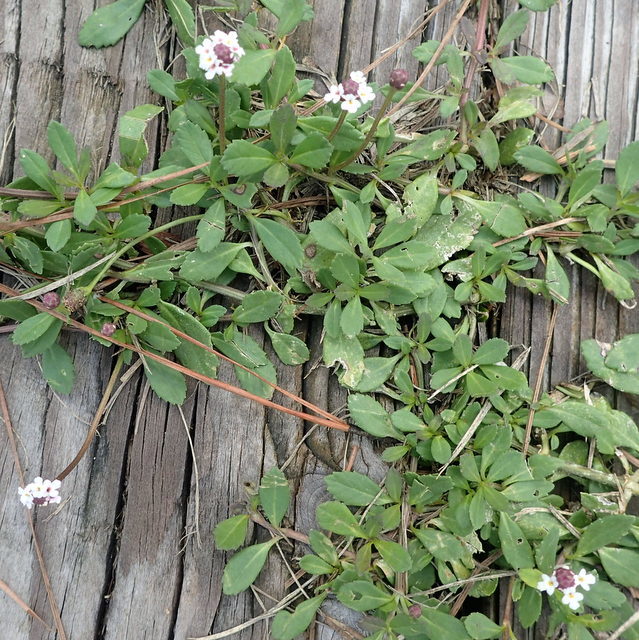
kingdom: Plantae
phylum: Tracheophyta
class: Magnoliopsida
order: Lamiales
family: Verbenaceae
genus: Phyla
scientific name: Phyla nodiflora
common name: Frogfruit
